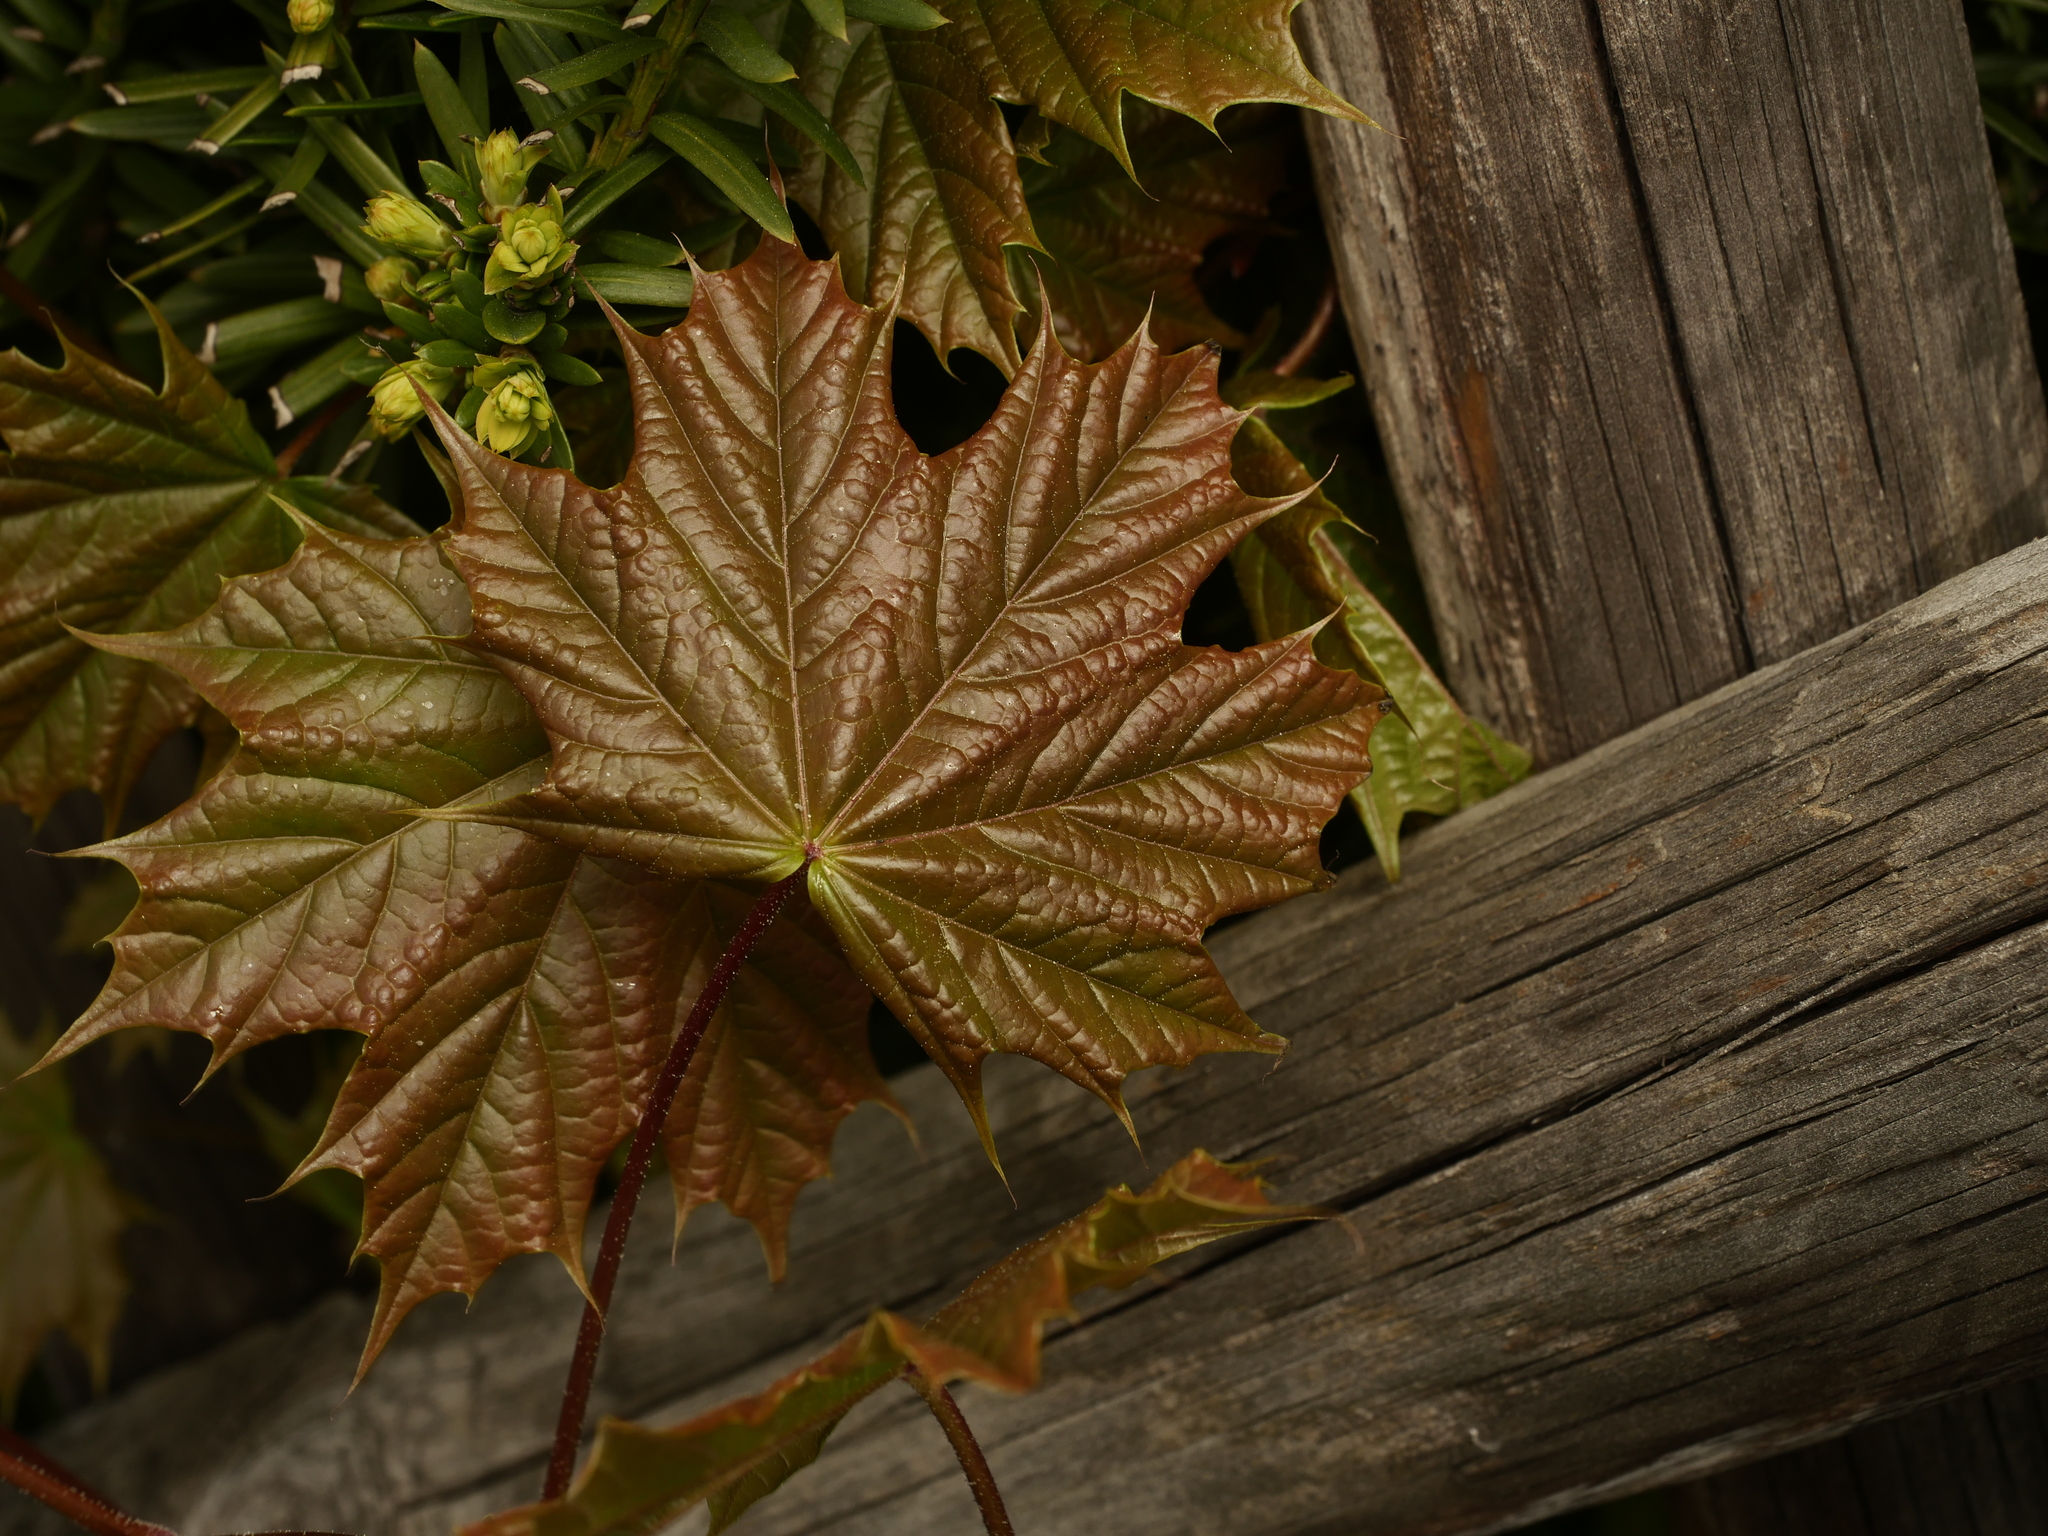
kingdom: Plantae
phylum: Tracheophyta
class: Magnoliopsida
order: Sapindales
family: Sapindaceae
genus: Acer
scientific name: Acer platanoides
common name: Norway maple
